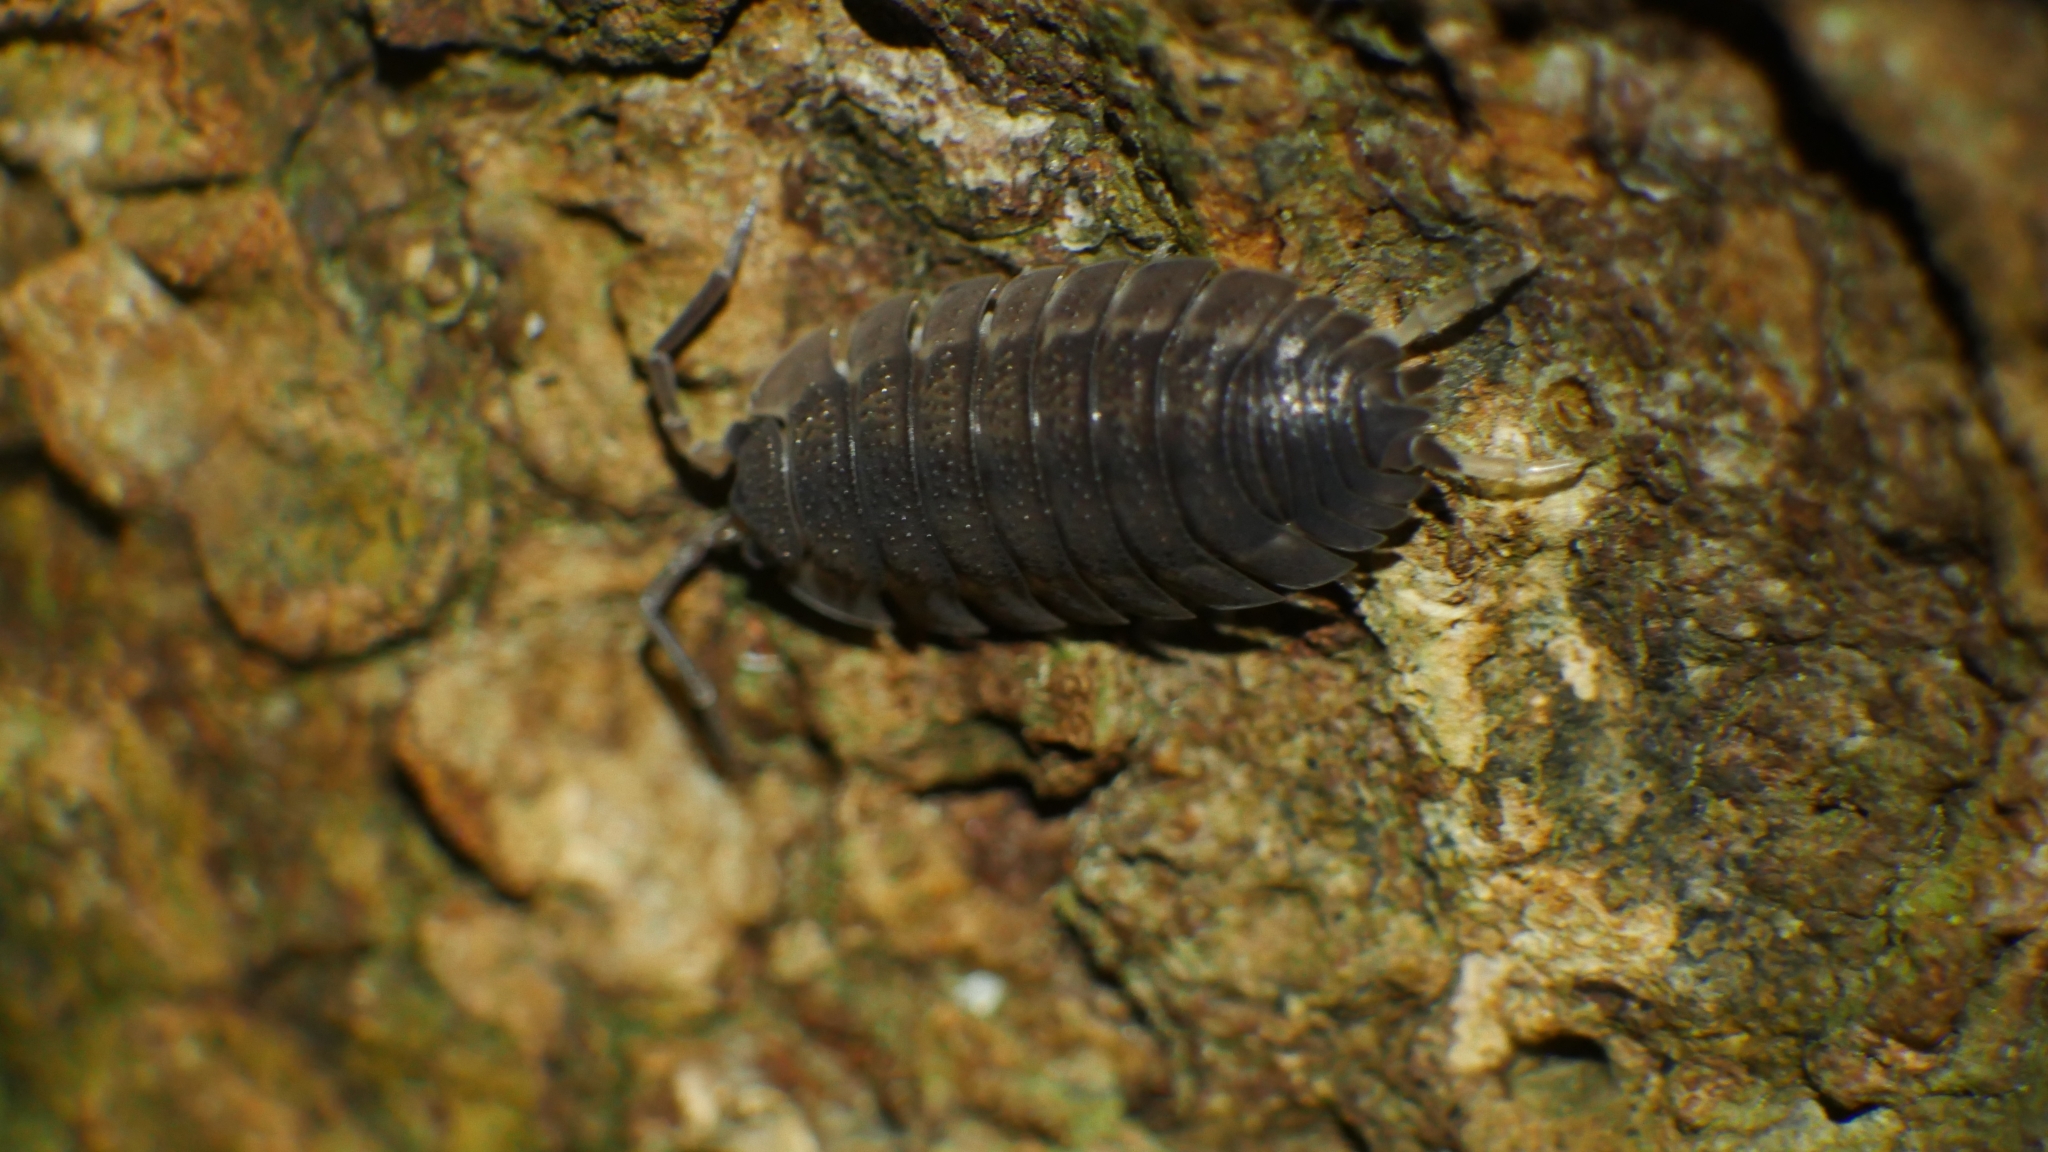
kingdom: Animalia
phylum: Arthropoda
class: Malacostraca
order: Isopoda
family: Porcellionidae
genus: Porcellio
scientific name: Porcellio scaber
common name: Common rough woodlouse
